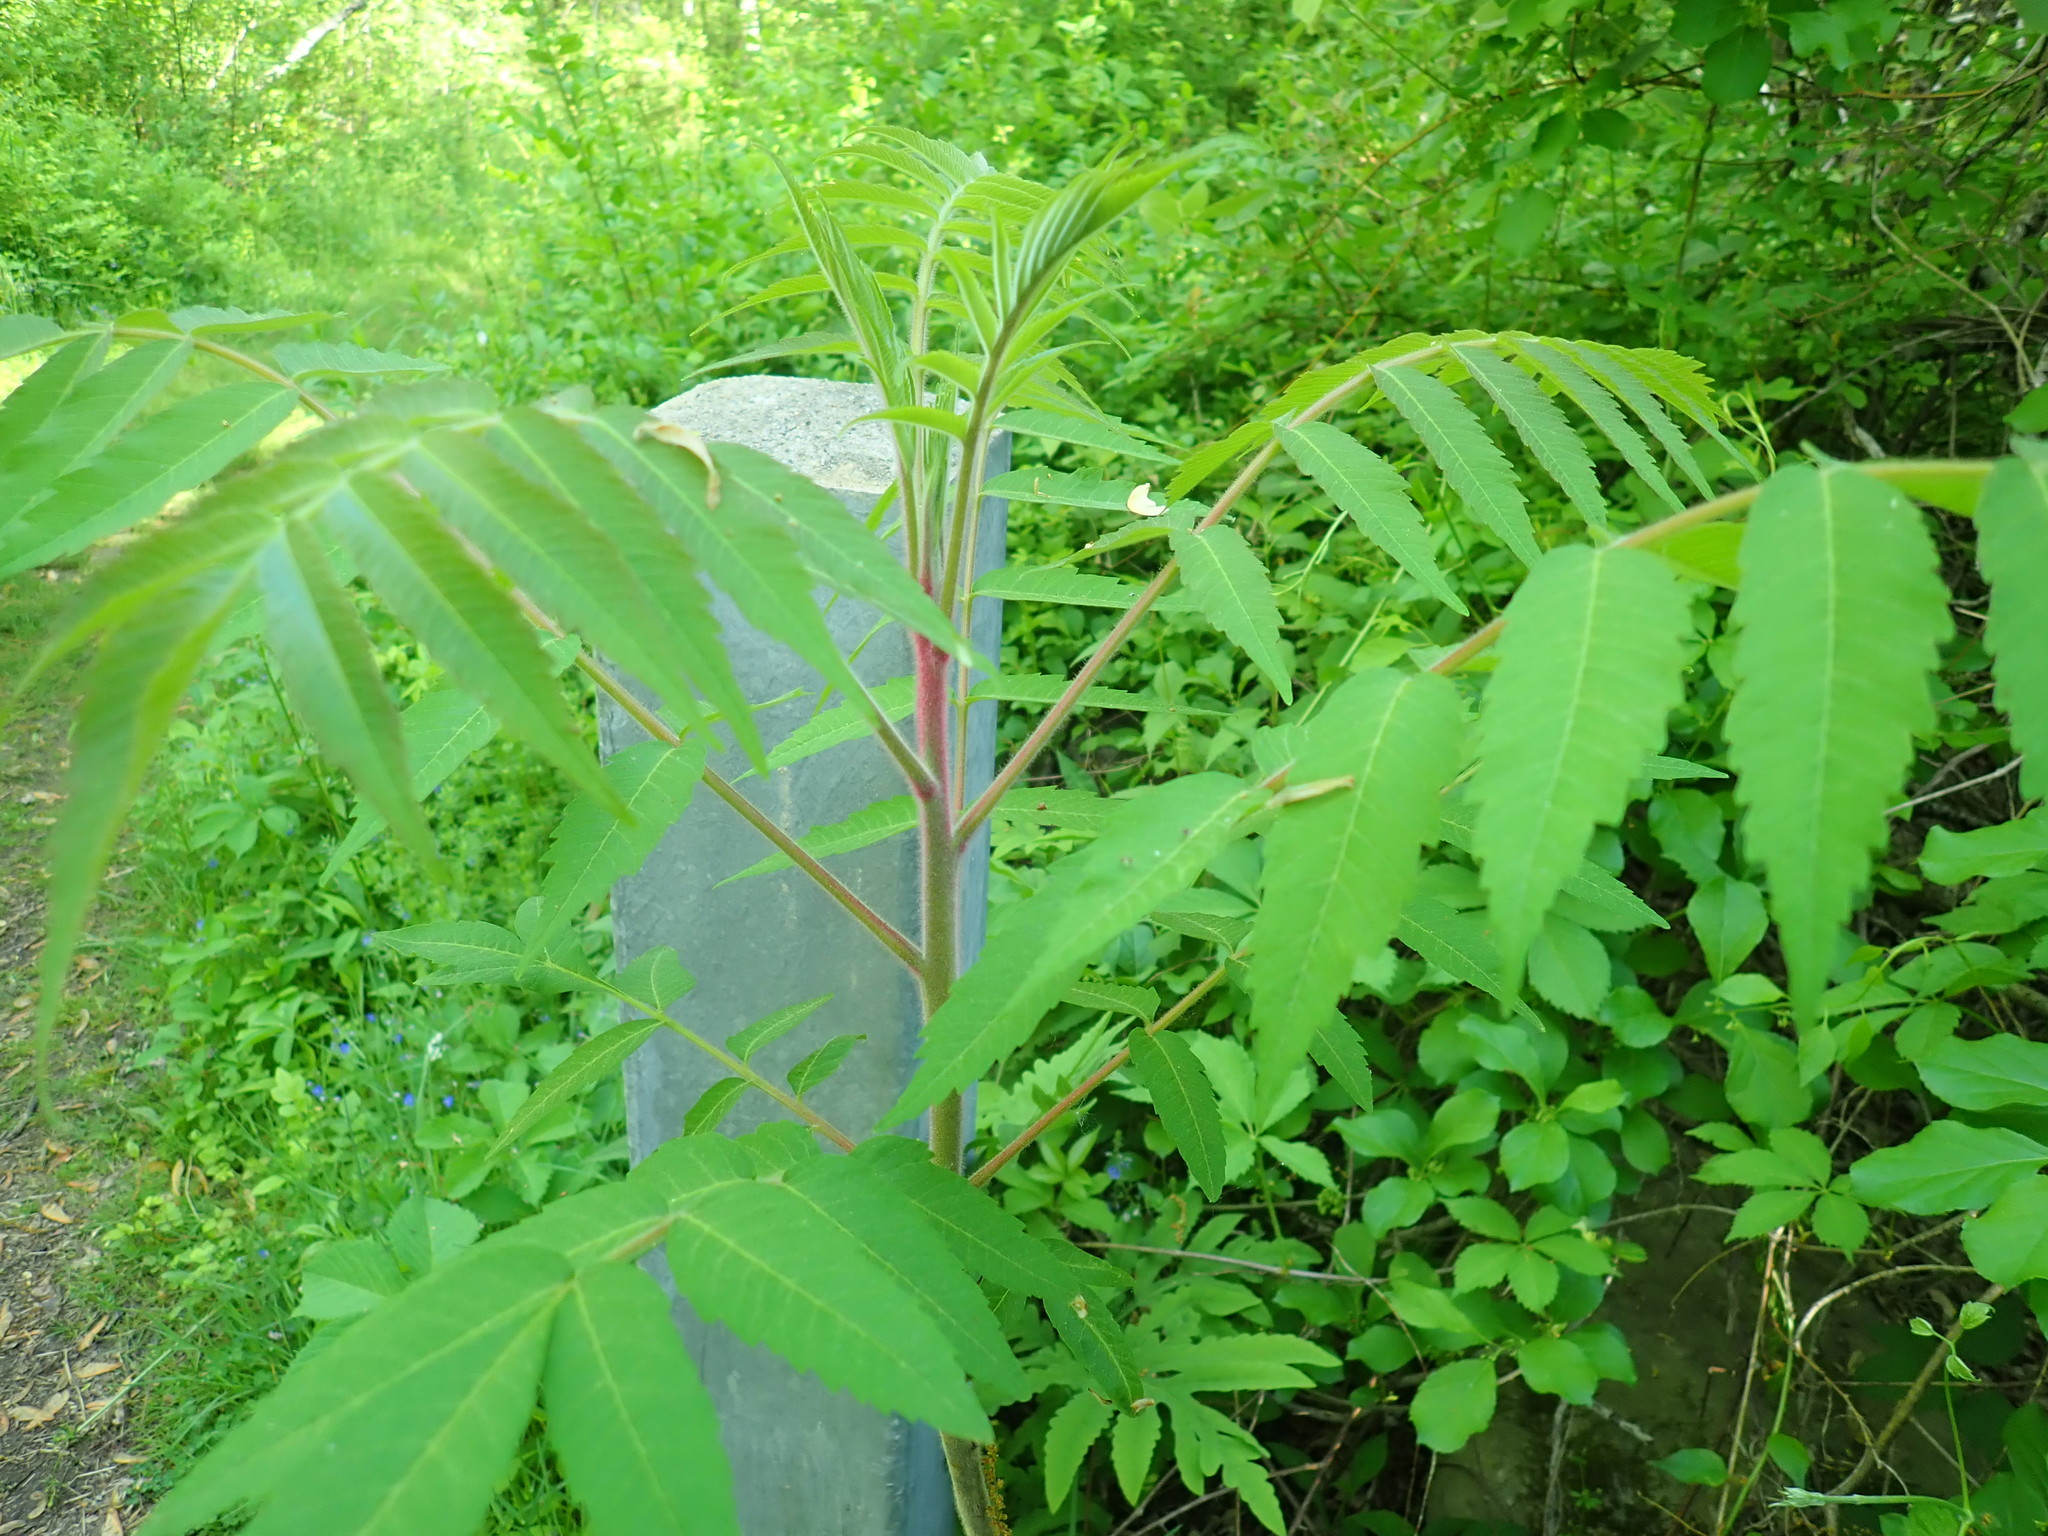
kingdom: Plantae
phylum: Tracheophyta
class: Magnoliopsida
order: Sapindales
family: Anacardiaceae
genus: Rhus
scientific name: Rhus typhina
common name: Staghorn sumac
